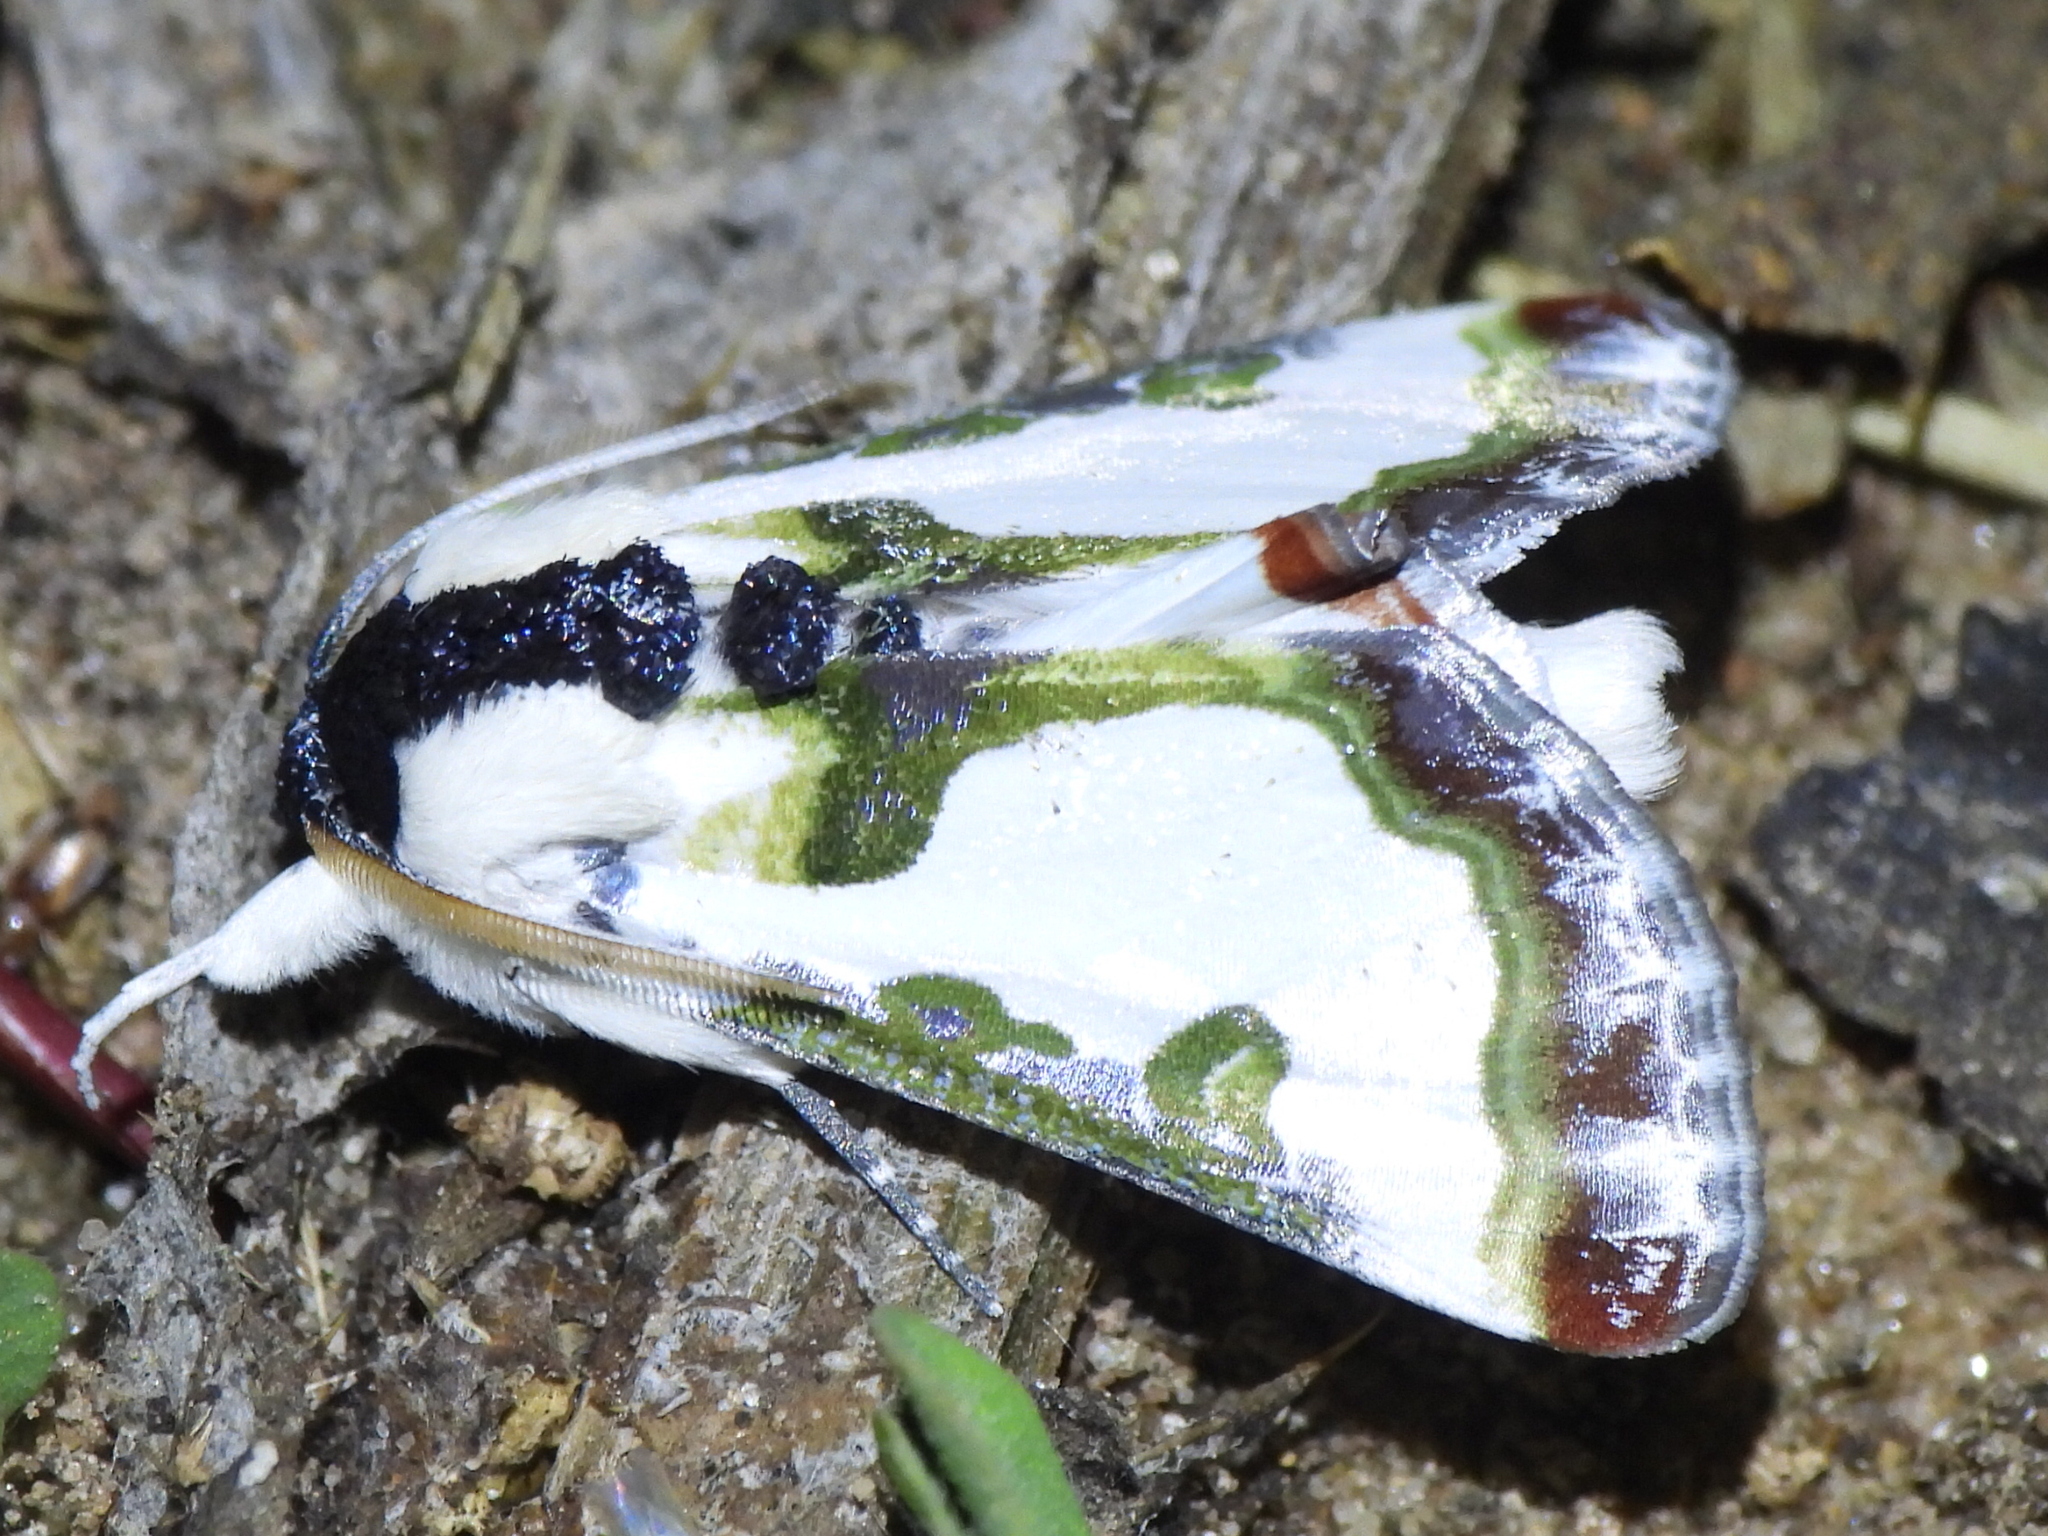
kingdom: Animalia
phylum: Arthropoda
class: Insecta
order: Lepidoptera
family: Noctuidae
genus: Xerociris
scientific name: Xerociris wilsonii
